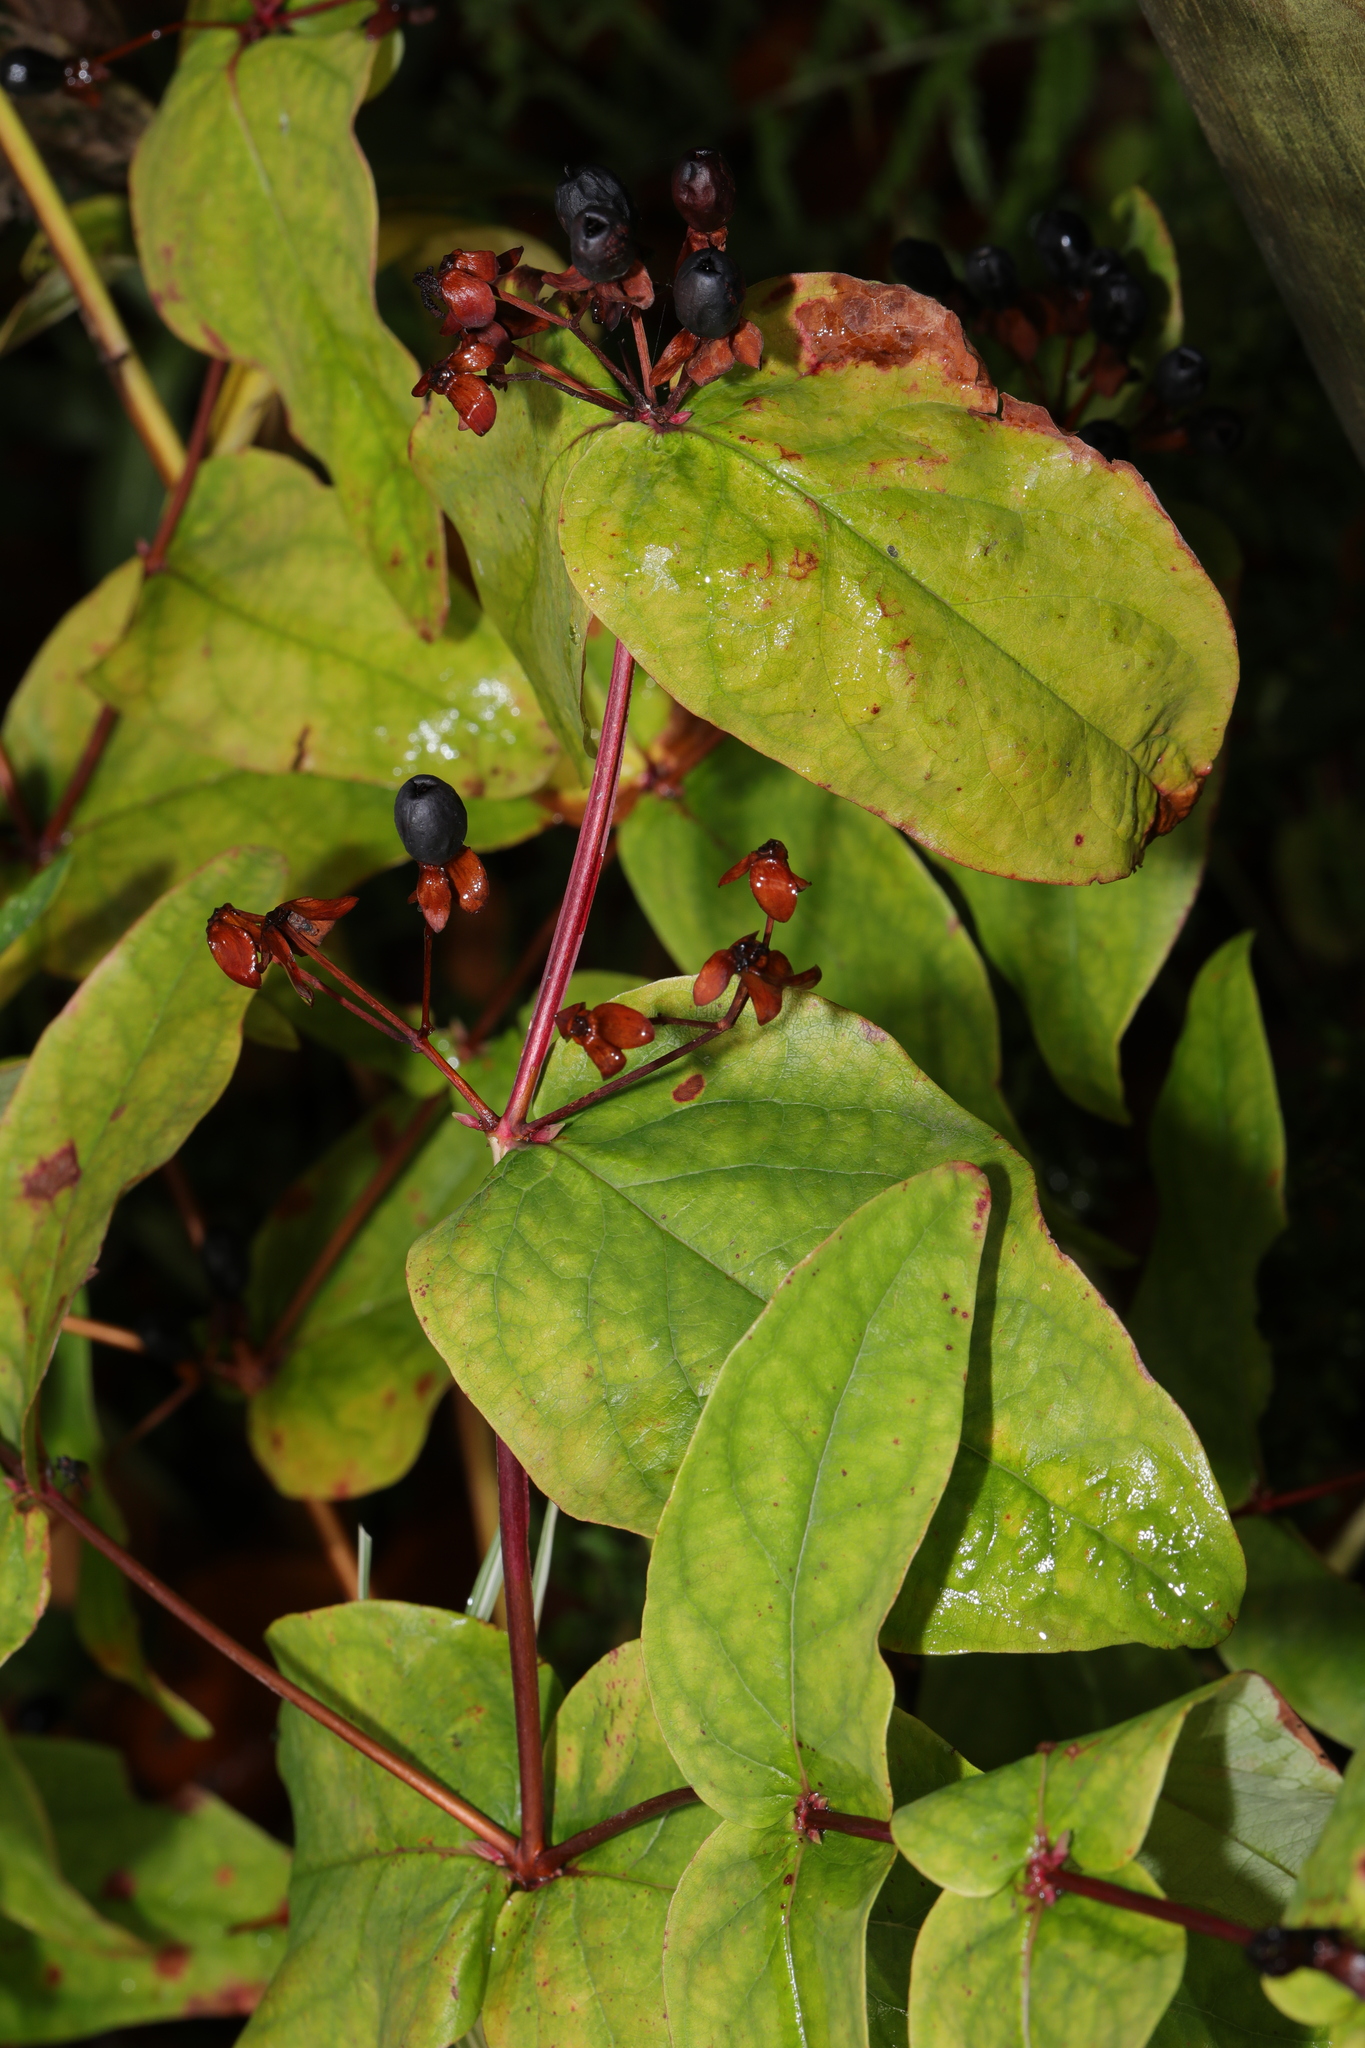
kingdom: Plantae
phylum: Tracheophyta
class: Magnoliopsida
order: Malpighiales
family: Hypericaceae
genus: Hypericum
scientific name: Hypericum androsaemum
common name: Sweet-amber
